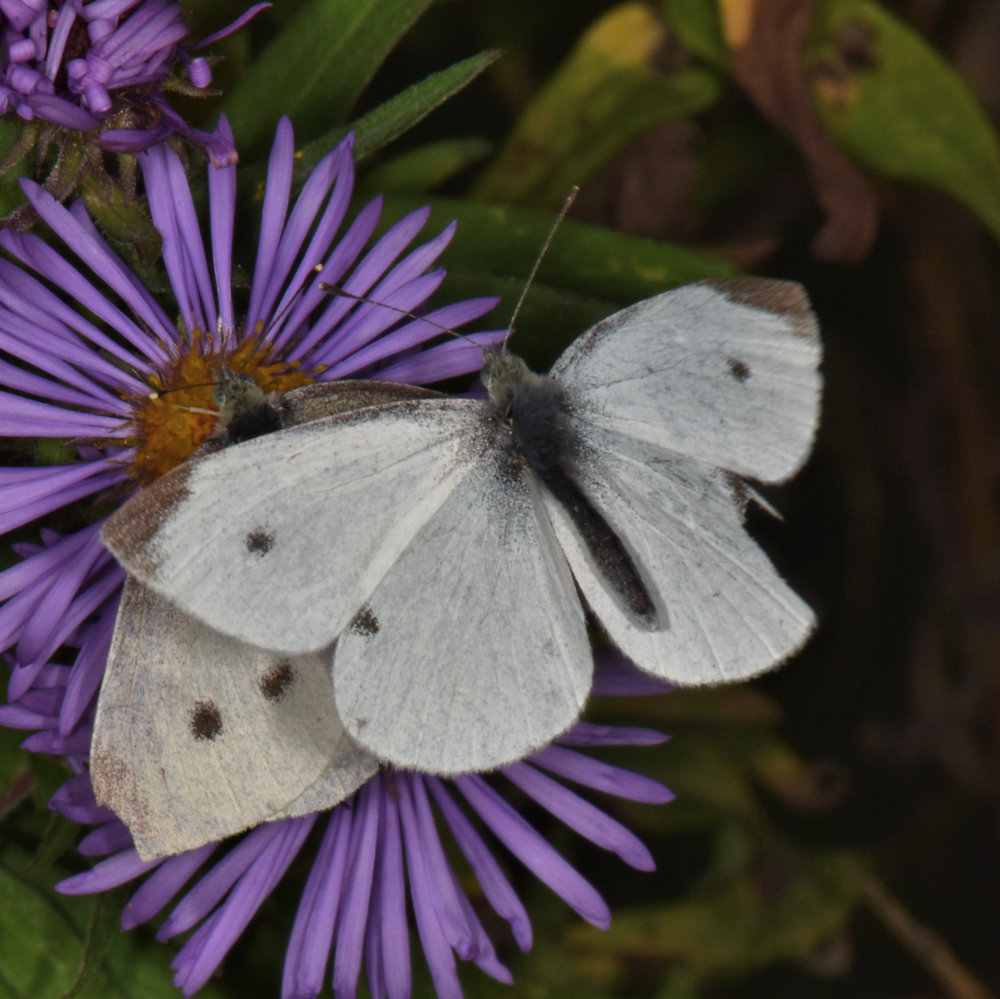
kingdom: Animalia
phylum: Arthropoda
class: Insecta
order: Lepidoptera
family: Pieridae
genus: Pieris
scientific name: Pieris rapae
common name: Small white
